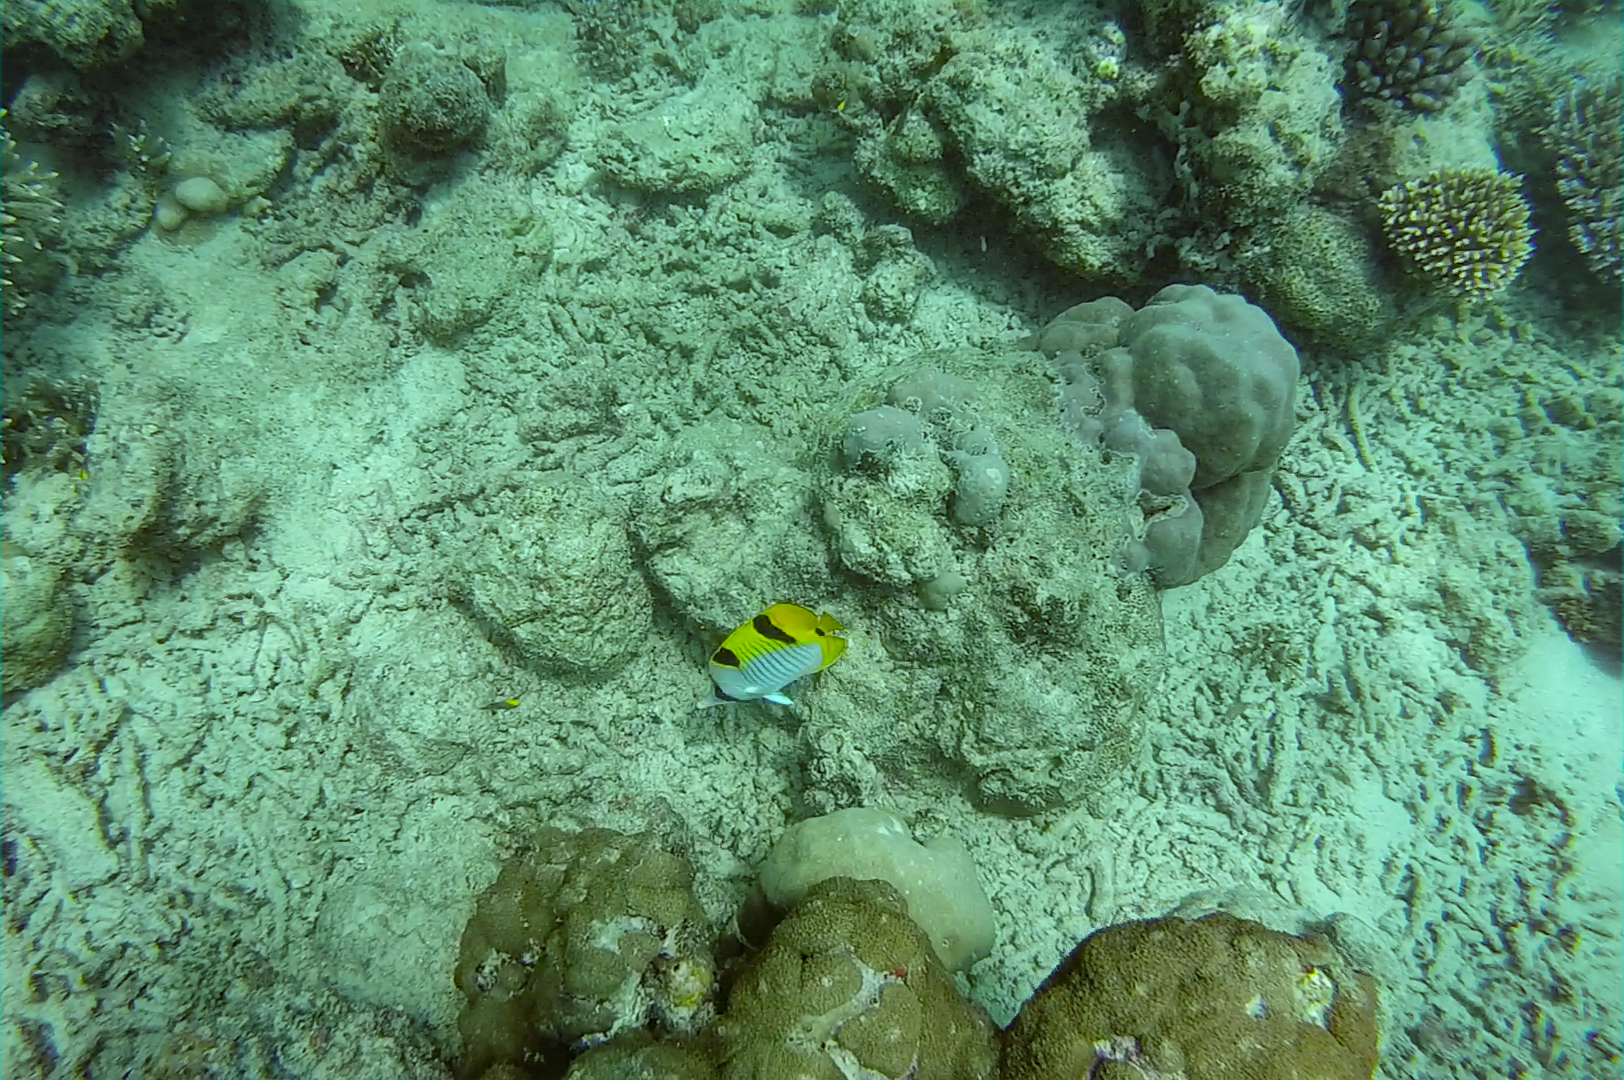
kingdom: Animalia
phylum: Chordata
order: Perciformes
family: Chaetodontidae
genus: Chaetodon
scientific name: Chaetodon falcula
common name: Blackwedged butterflyfish
